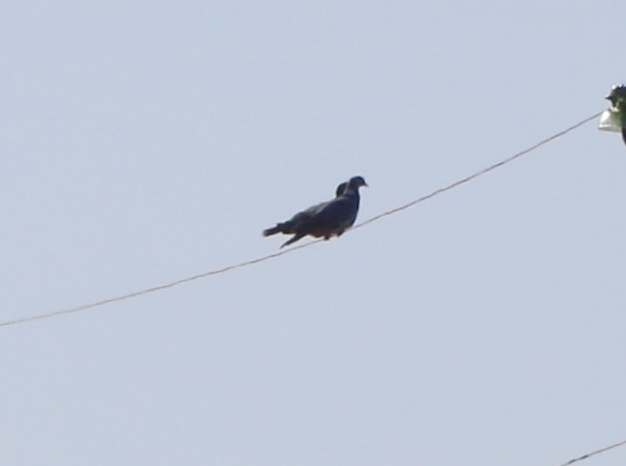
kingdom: Animalia
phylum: Chordata
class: Aves
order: Columbiformes
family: Columbidae
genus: Columba
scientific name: Columba palumbus
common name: Common wood pigeon
